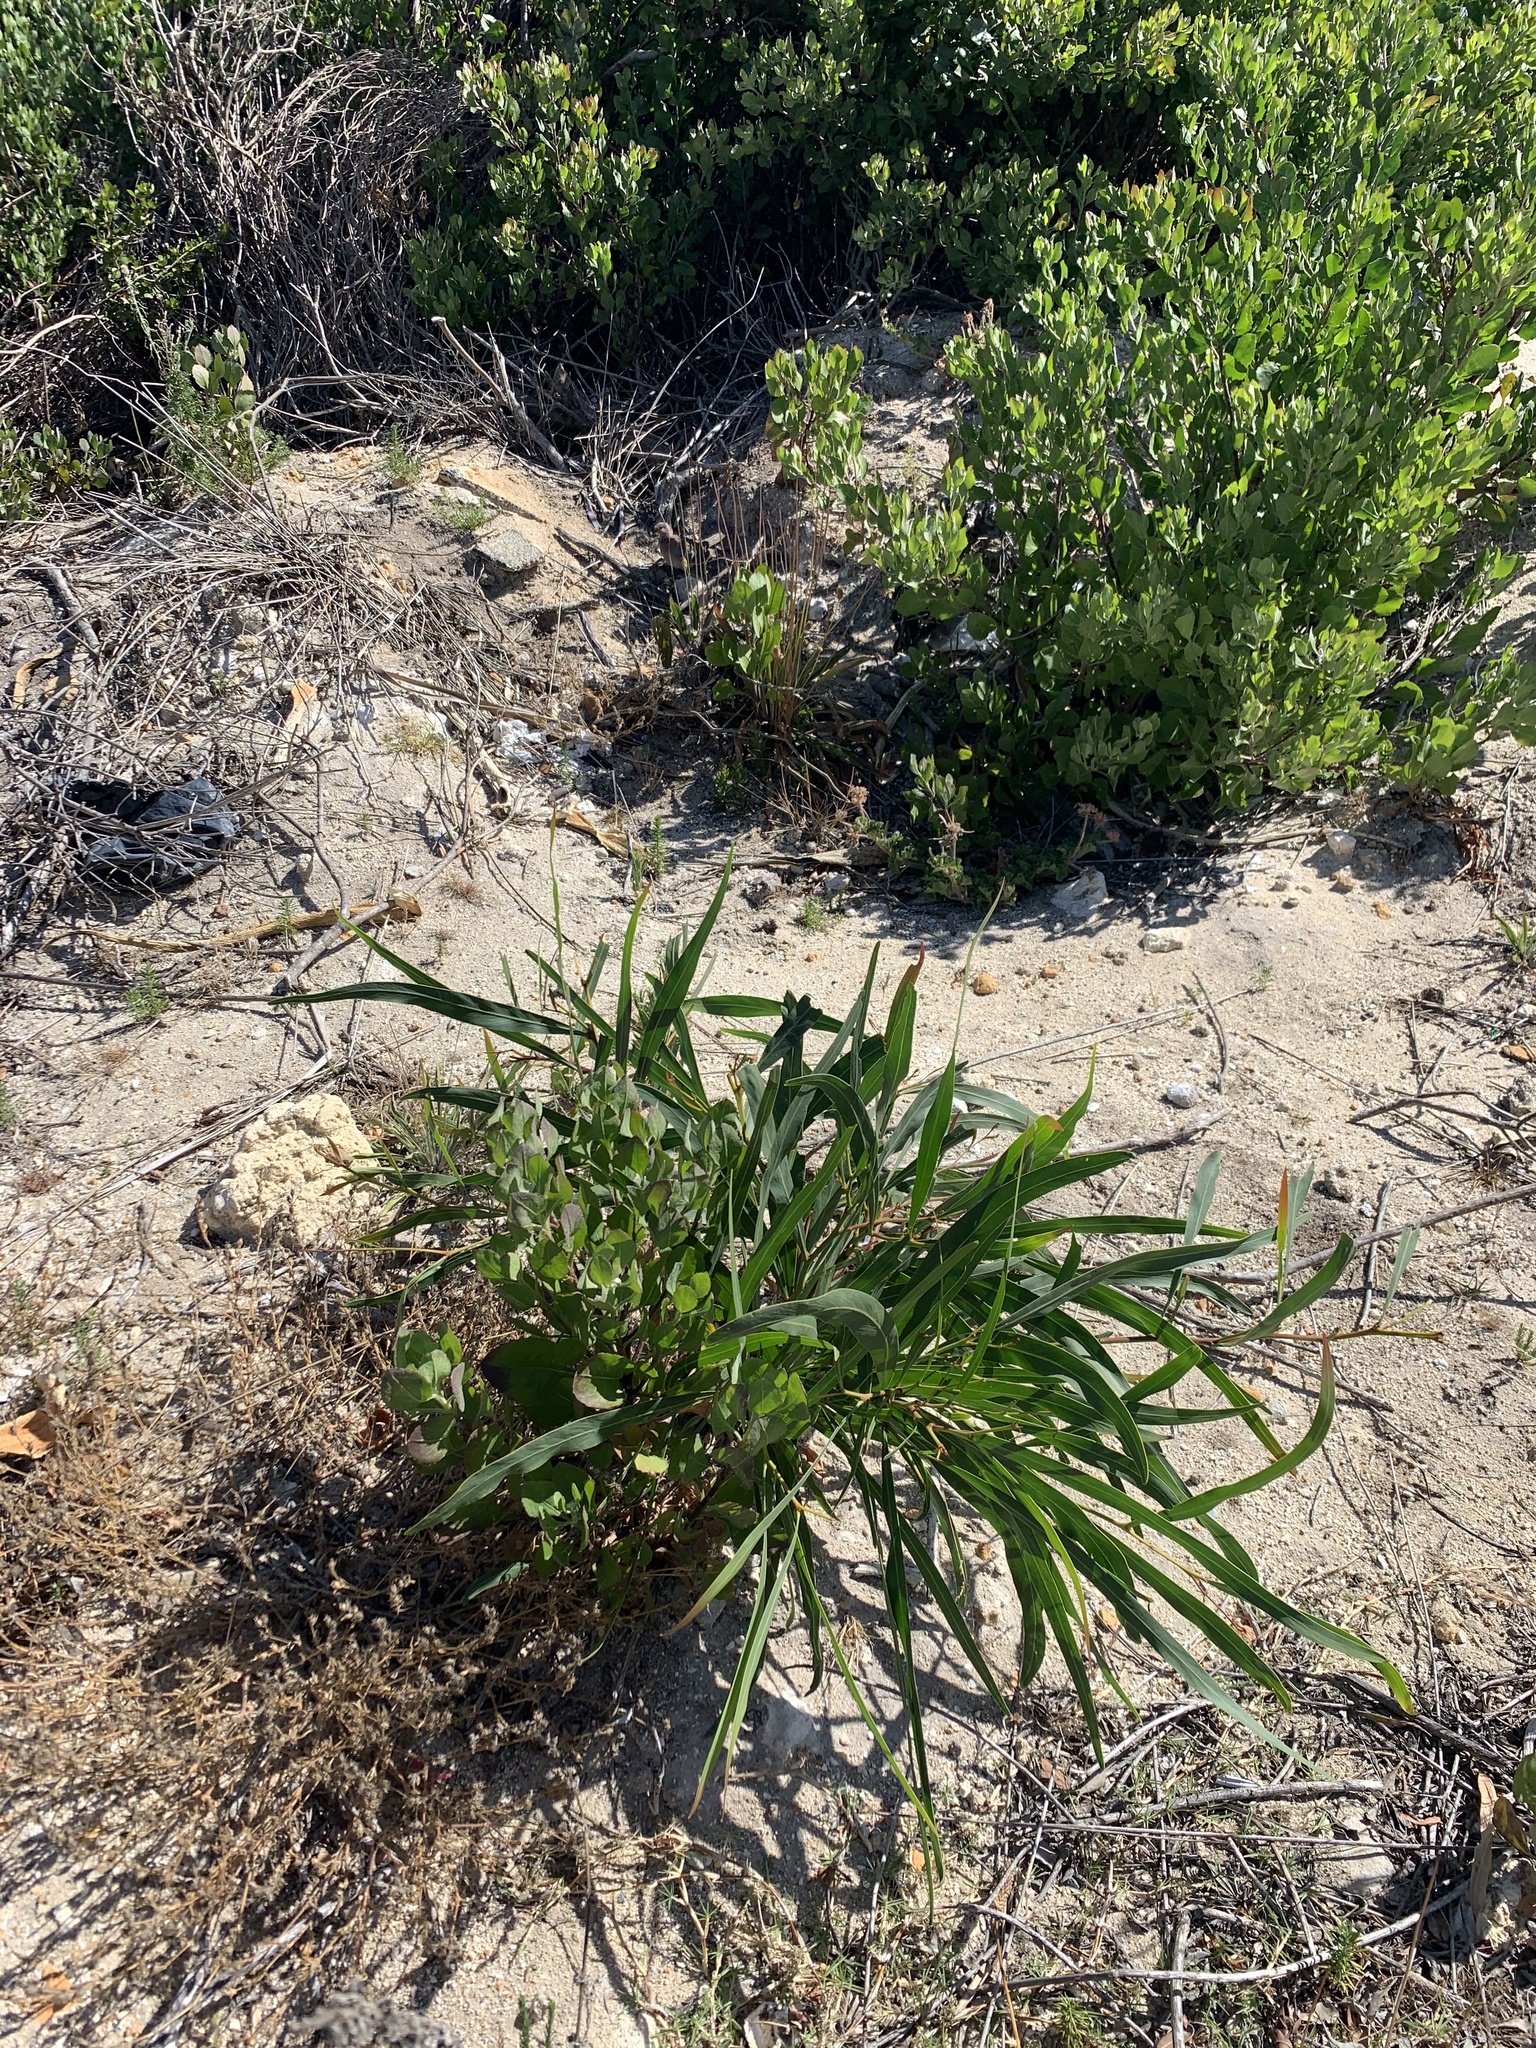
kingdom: Plantae
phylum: Tracheophyta
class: Magnoliopsida
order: Fabales
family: Fabaceae
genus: Acacia
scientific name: Acacia saligna
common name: Orange wattle
